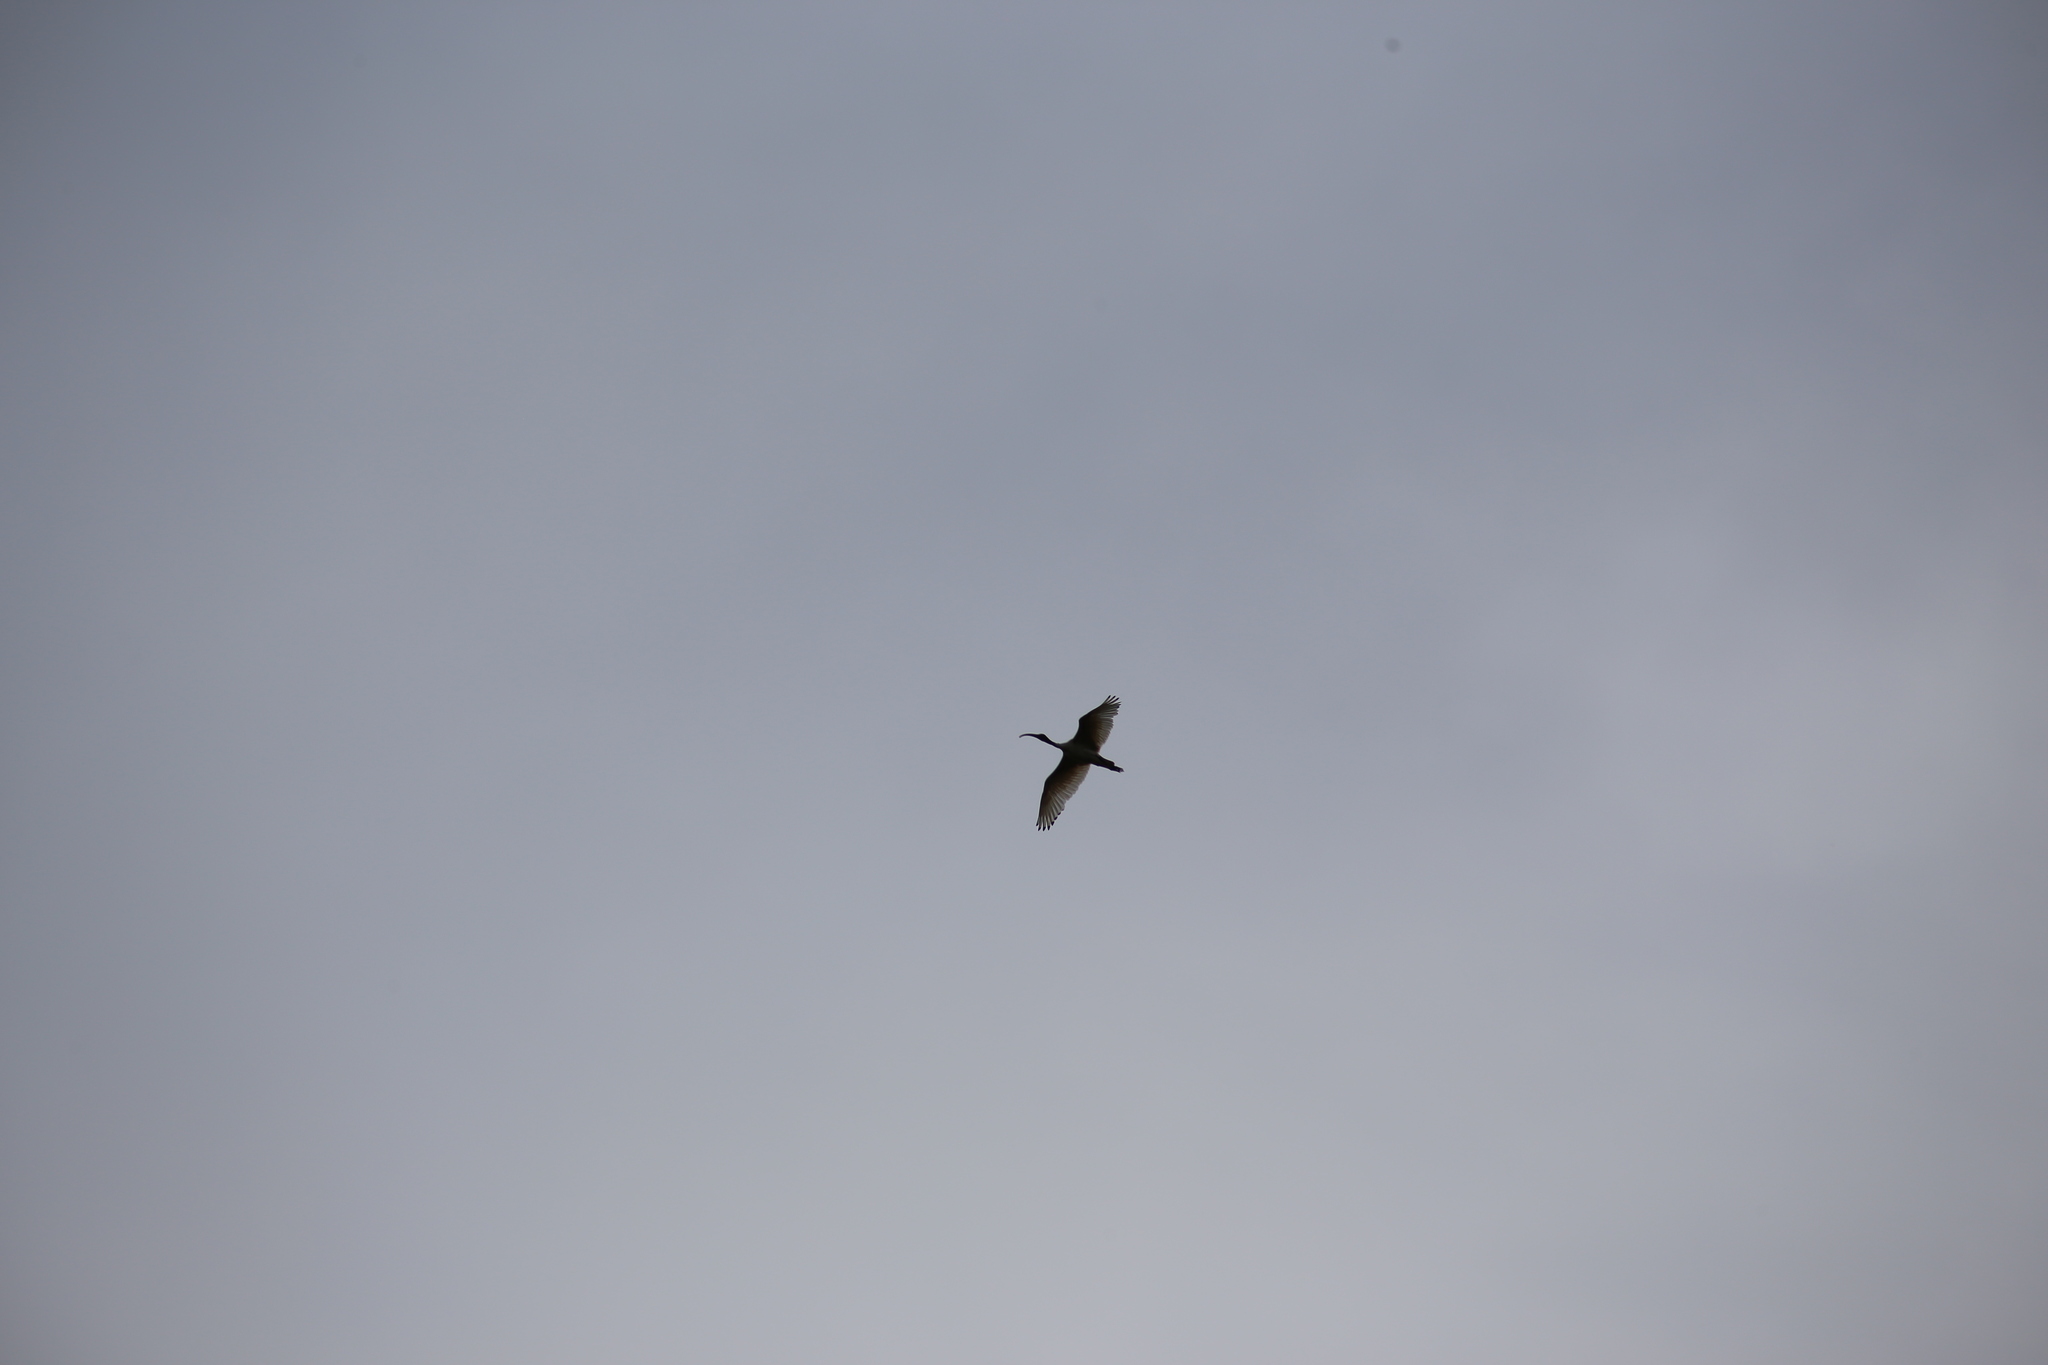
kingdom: Animalia
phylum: Chordata
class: Aves
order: Pelecaniformes
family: Threskiornithidae
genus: Threskiornis
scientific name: Threskiornis molucca
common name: Australian white ibis
